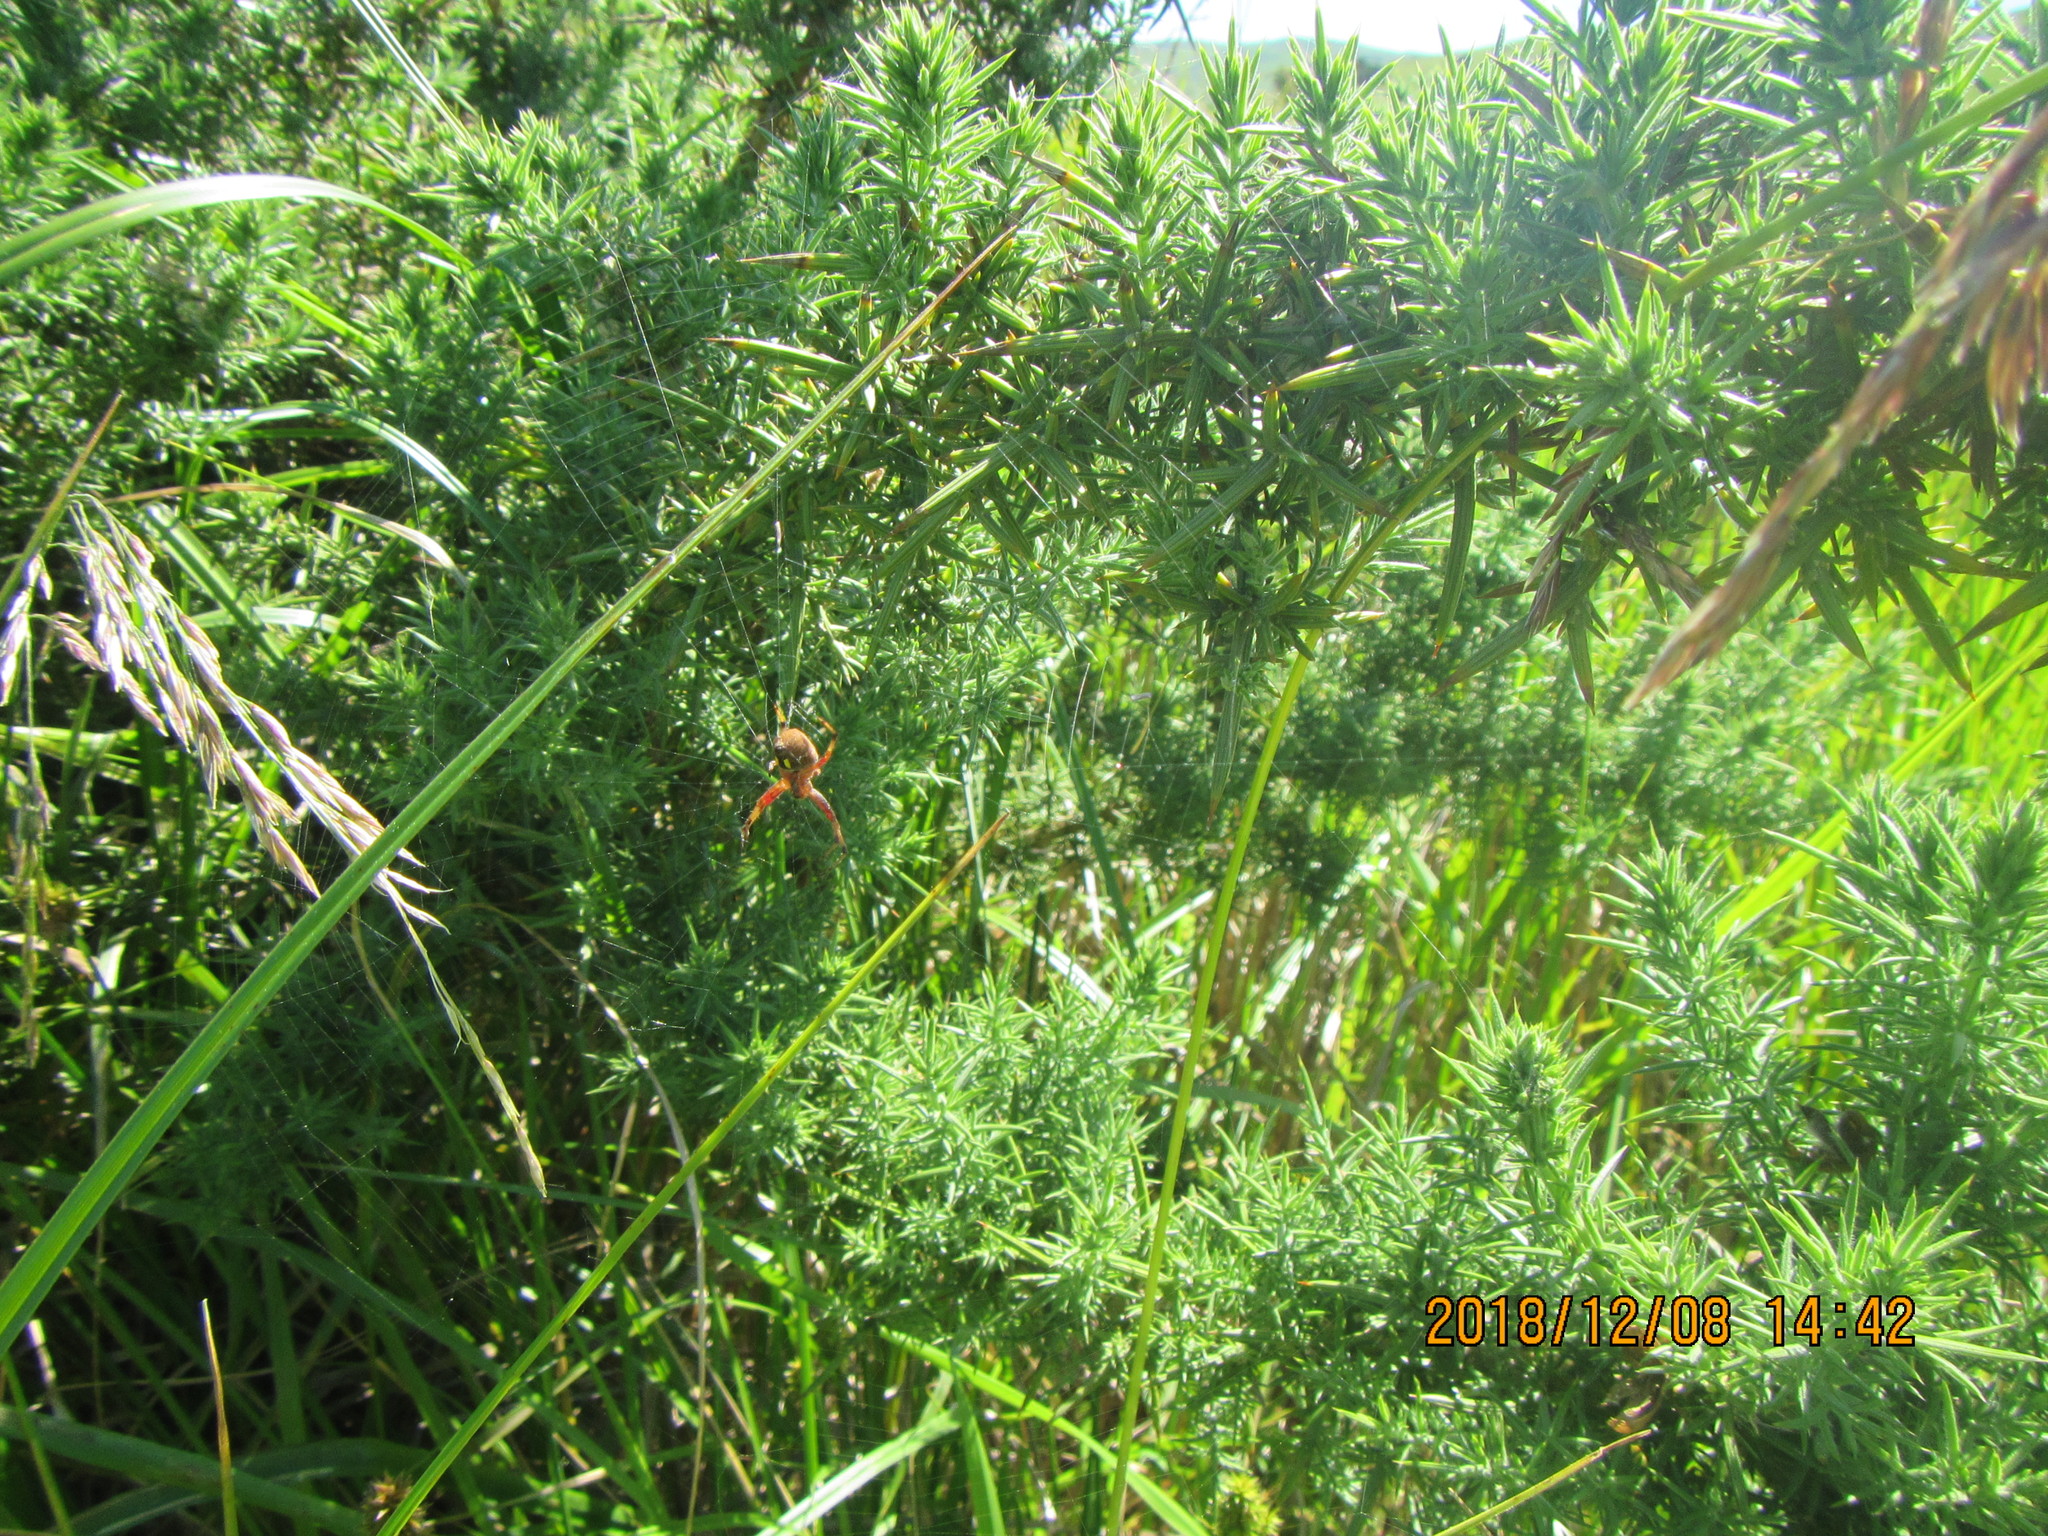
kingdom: Animalia
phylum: Arthropoda
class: Arachnida
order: Araneae
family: Araneidae
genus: Salsa
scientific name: Salsa fuliginata
